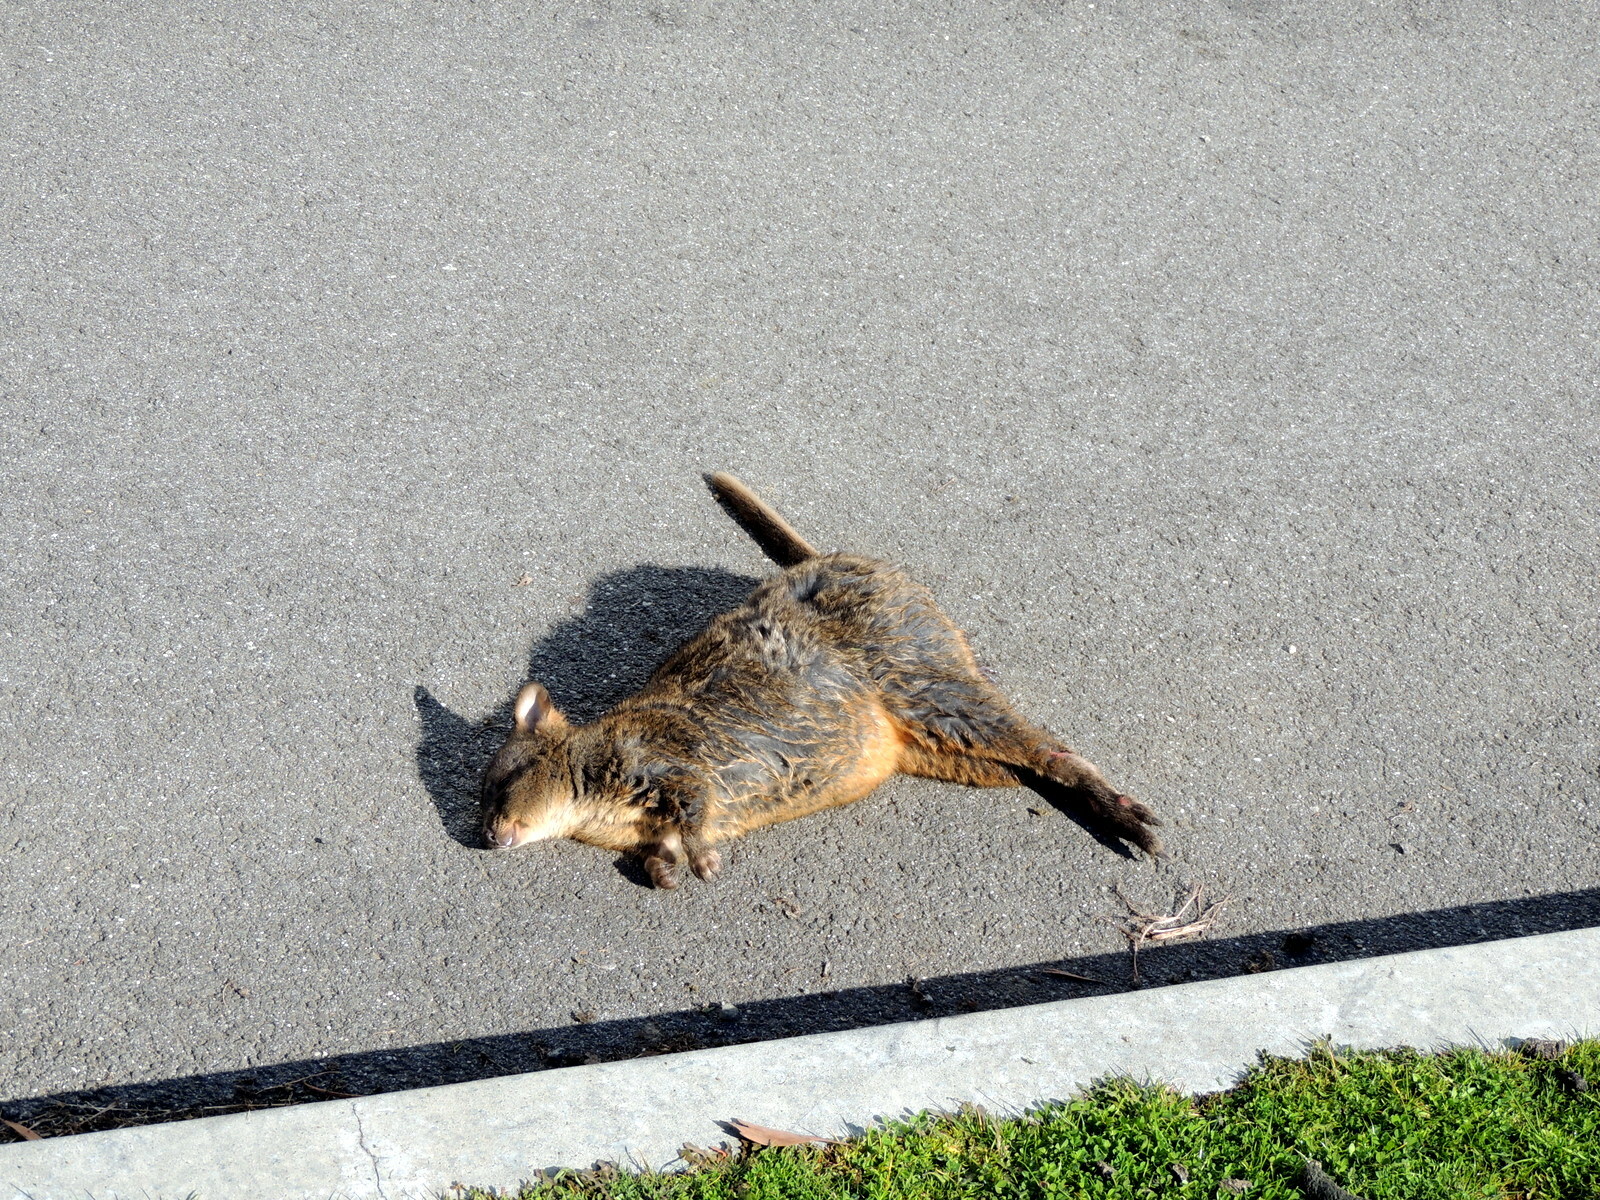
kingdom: Animalia
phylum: Chordata
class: Mammalia
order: Diprotodontia
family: Macropodidae
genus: Thylogale
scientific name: Thylogale billardierii
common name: Tasmanian pademelon
